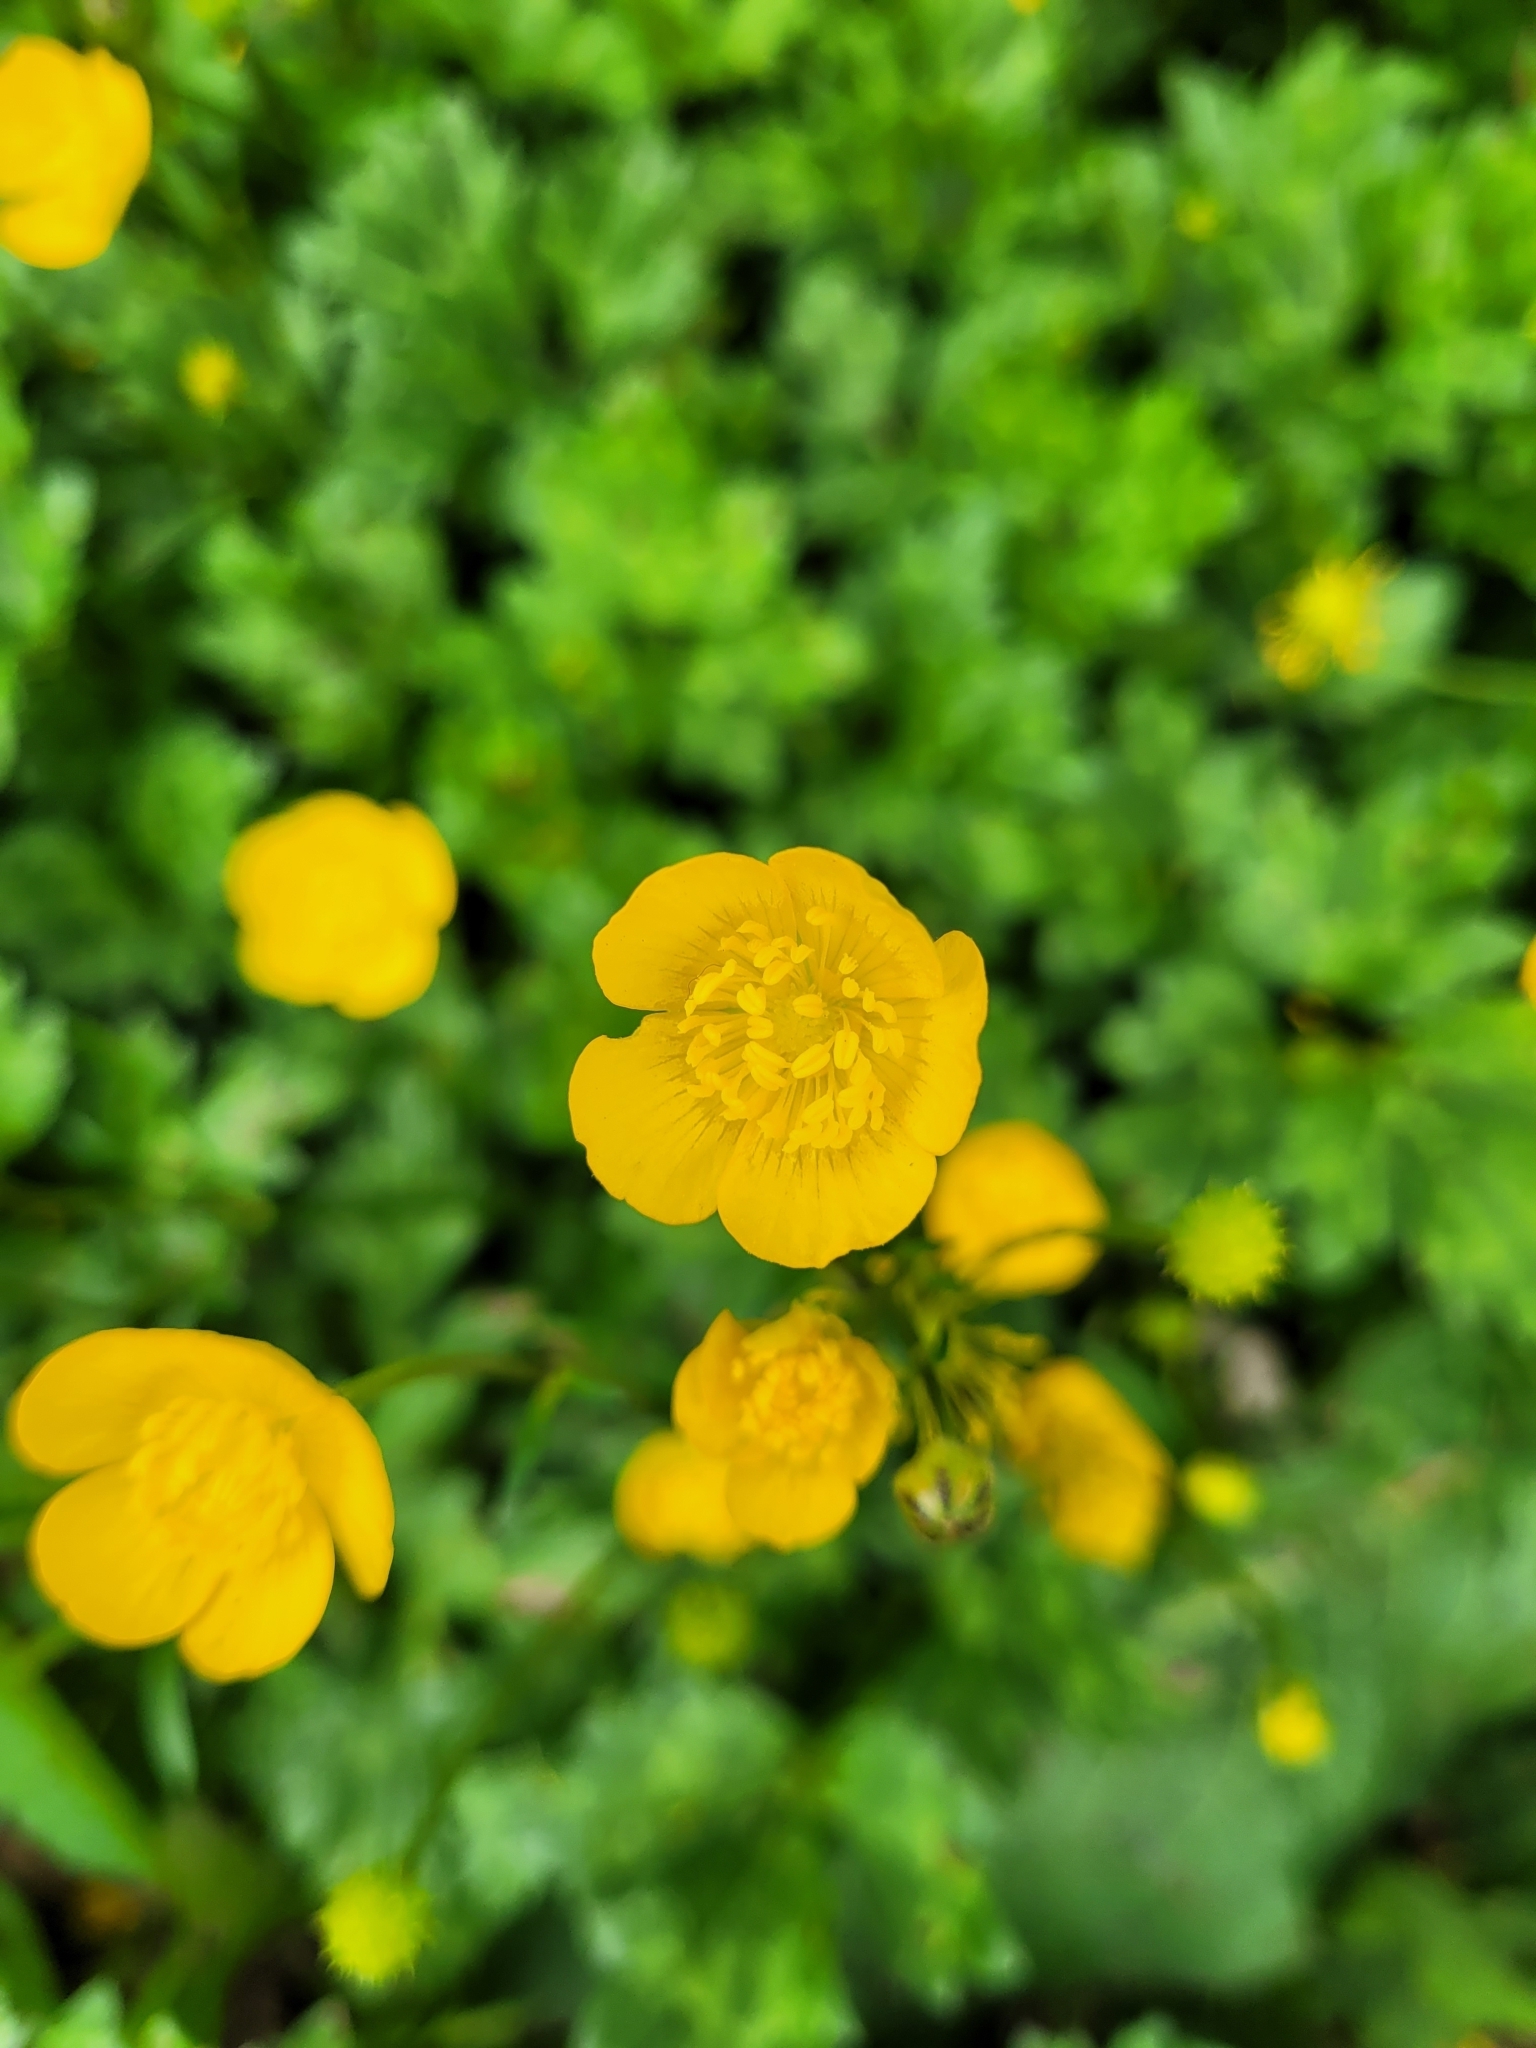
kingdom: Plantae
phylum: Tracheophyta
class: Magnoliopsida
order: Ranunculales
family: Ranunculaceae
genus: Ranunculus
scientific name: Ranunculus repens
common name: Creeping buttercup
